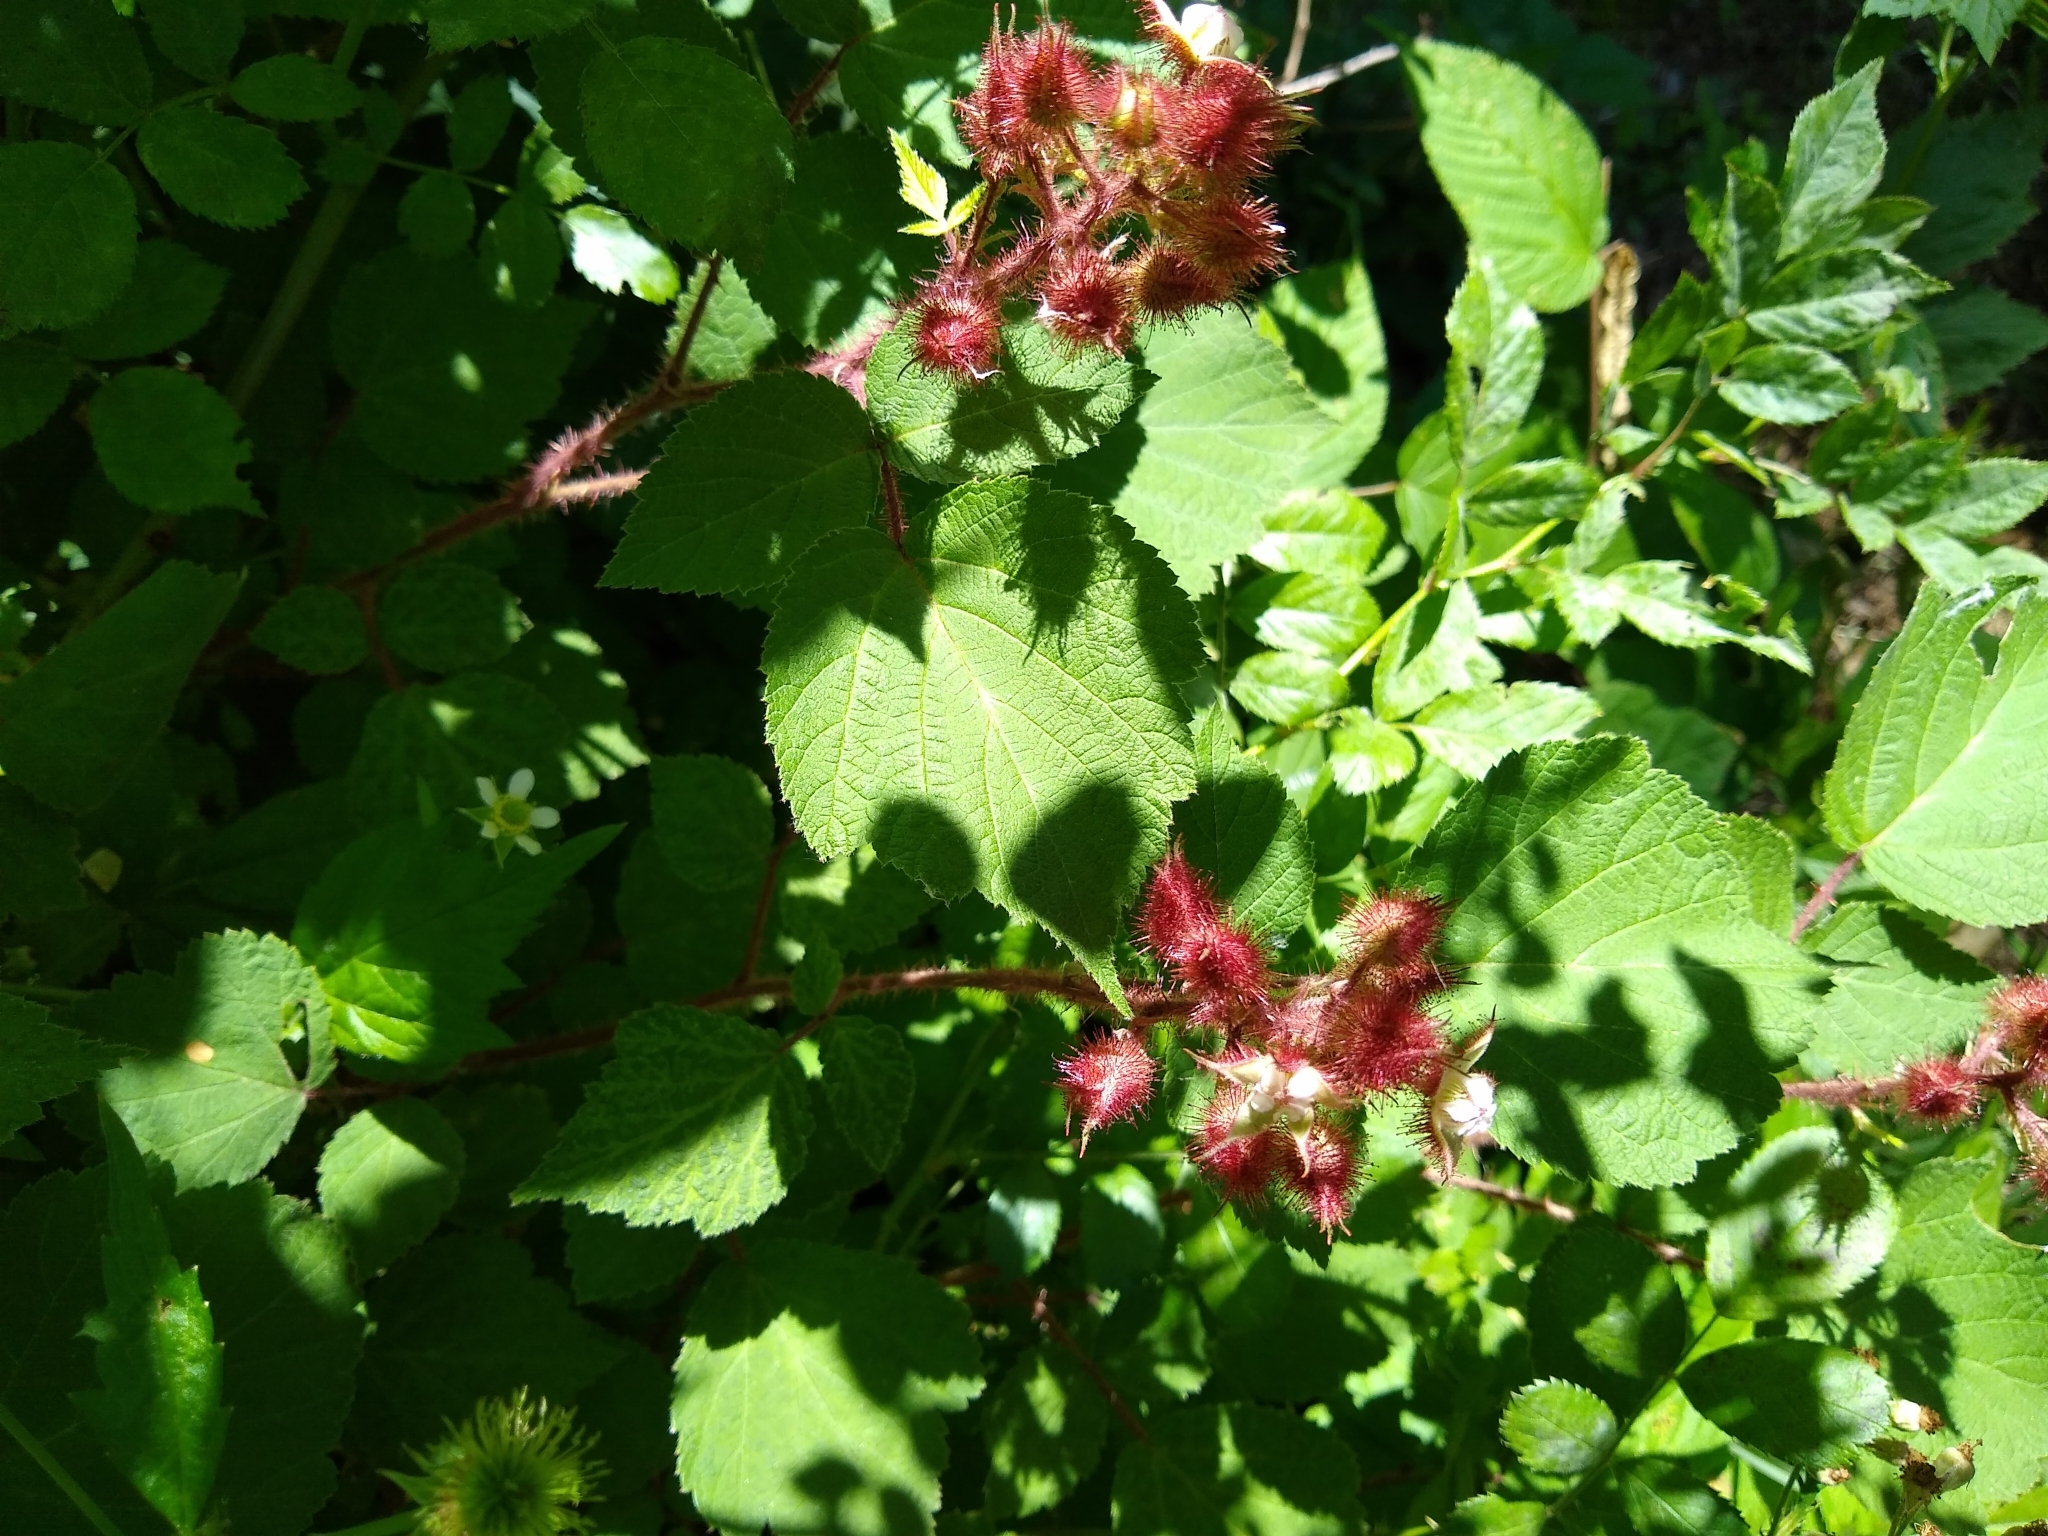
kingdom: Plantae
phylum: Tracheophyta
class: Magnoliopsida
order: Rosales
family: Rosaceae
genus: Rubus
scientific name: Rubus phoenicolasius
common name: Japanese wineberry
